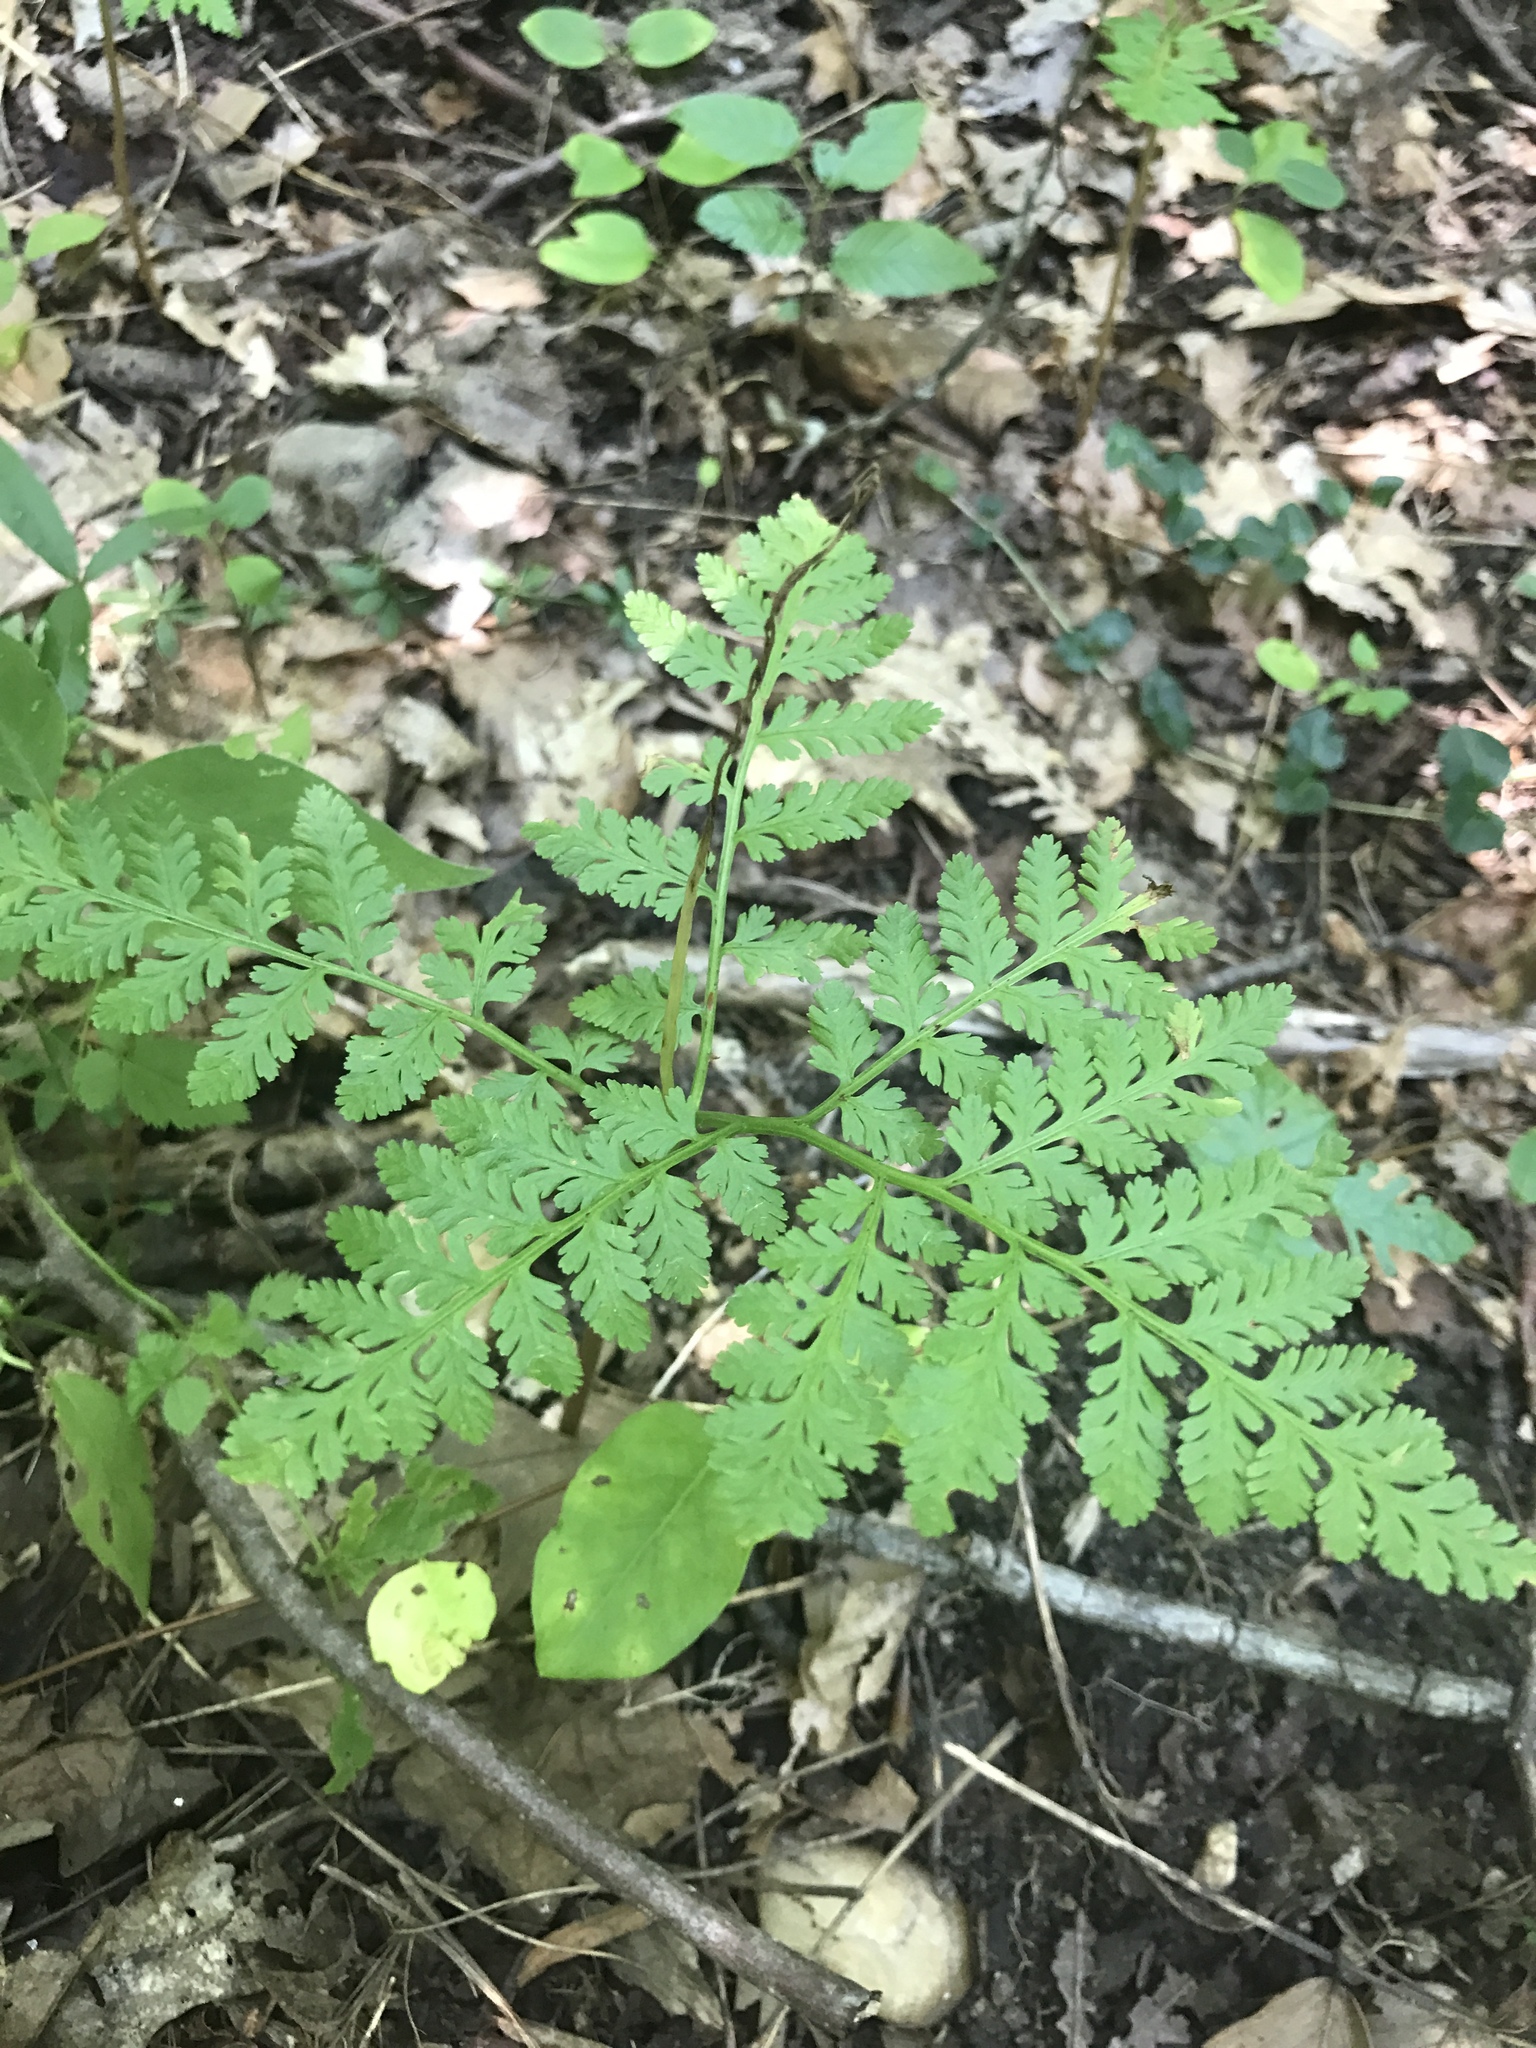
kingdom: Plantae
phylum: Tracheophyta
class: Polypodiopsida
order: Ophioglossales
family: Ophioglossaceae
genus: Botrypus
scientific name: Botrypus virginianus
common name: Common grapefern
